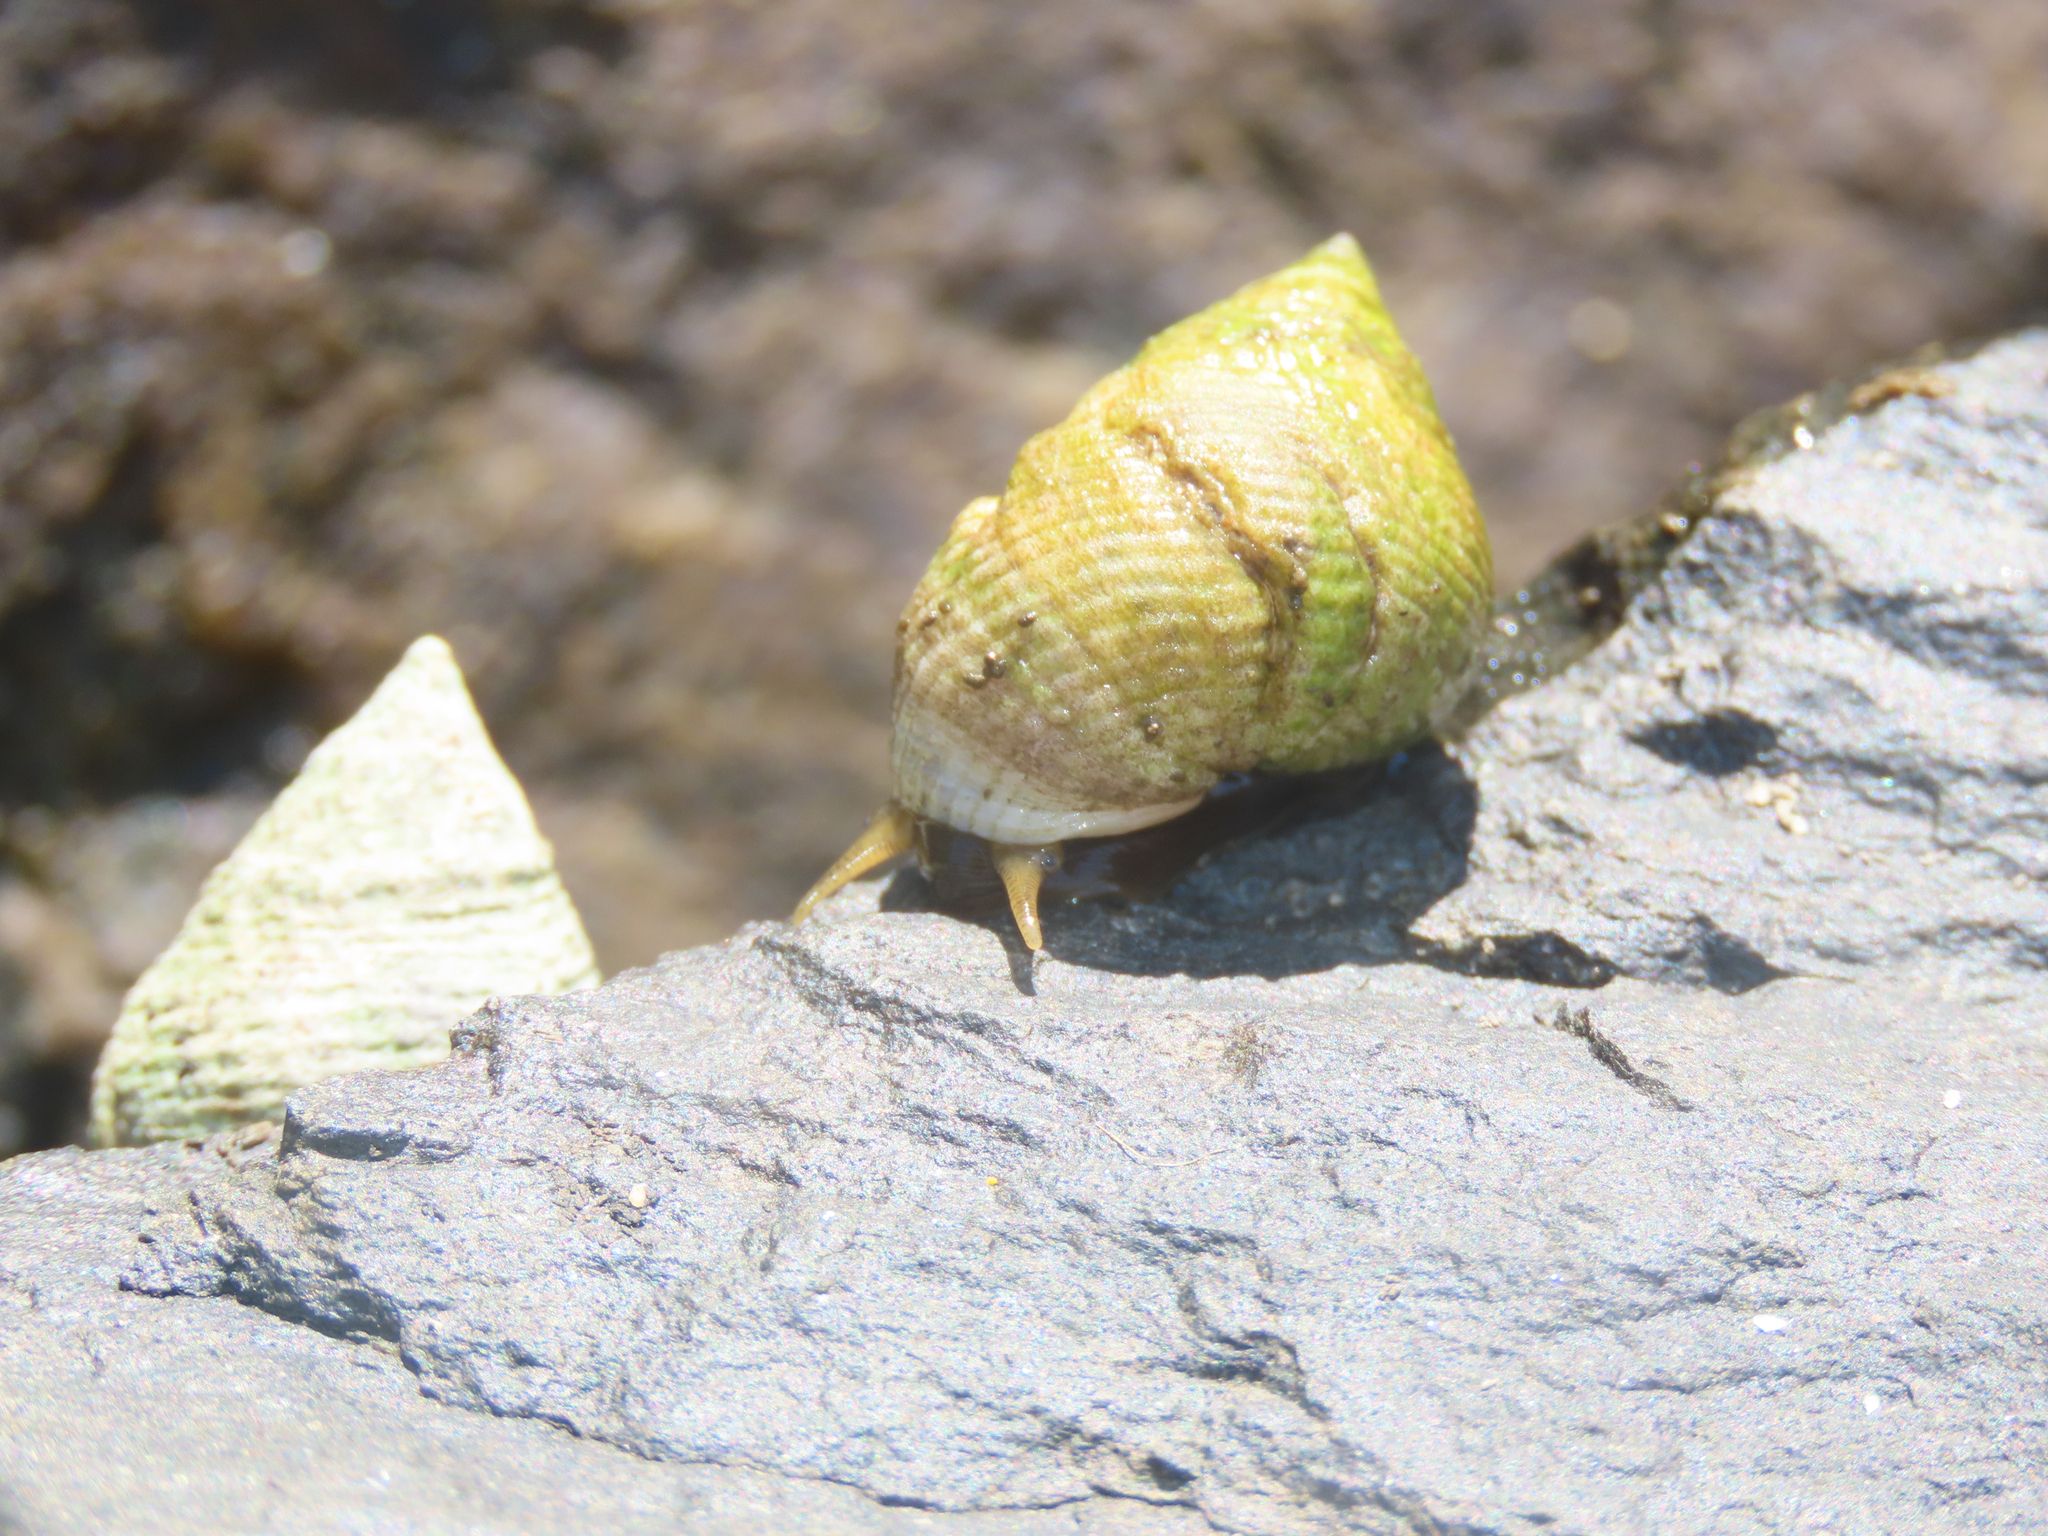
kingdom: Animalia
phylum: Mollusca
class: Gastropoda
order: Littorinimorpha
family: Littorinidae
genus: Littoraria
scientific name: Littoraria irrorata
